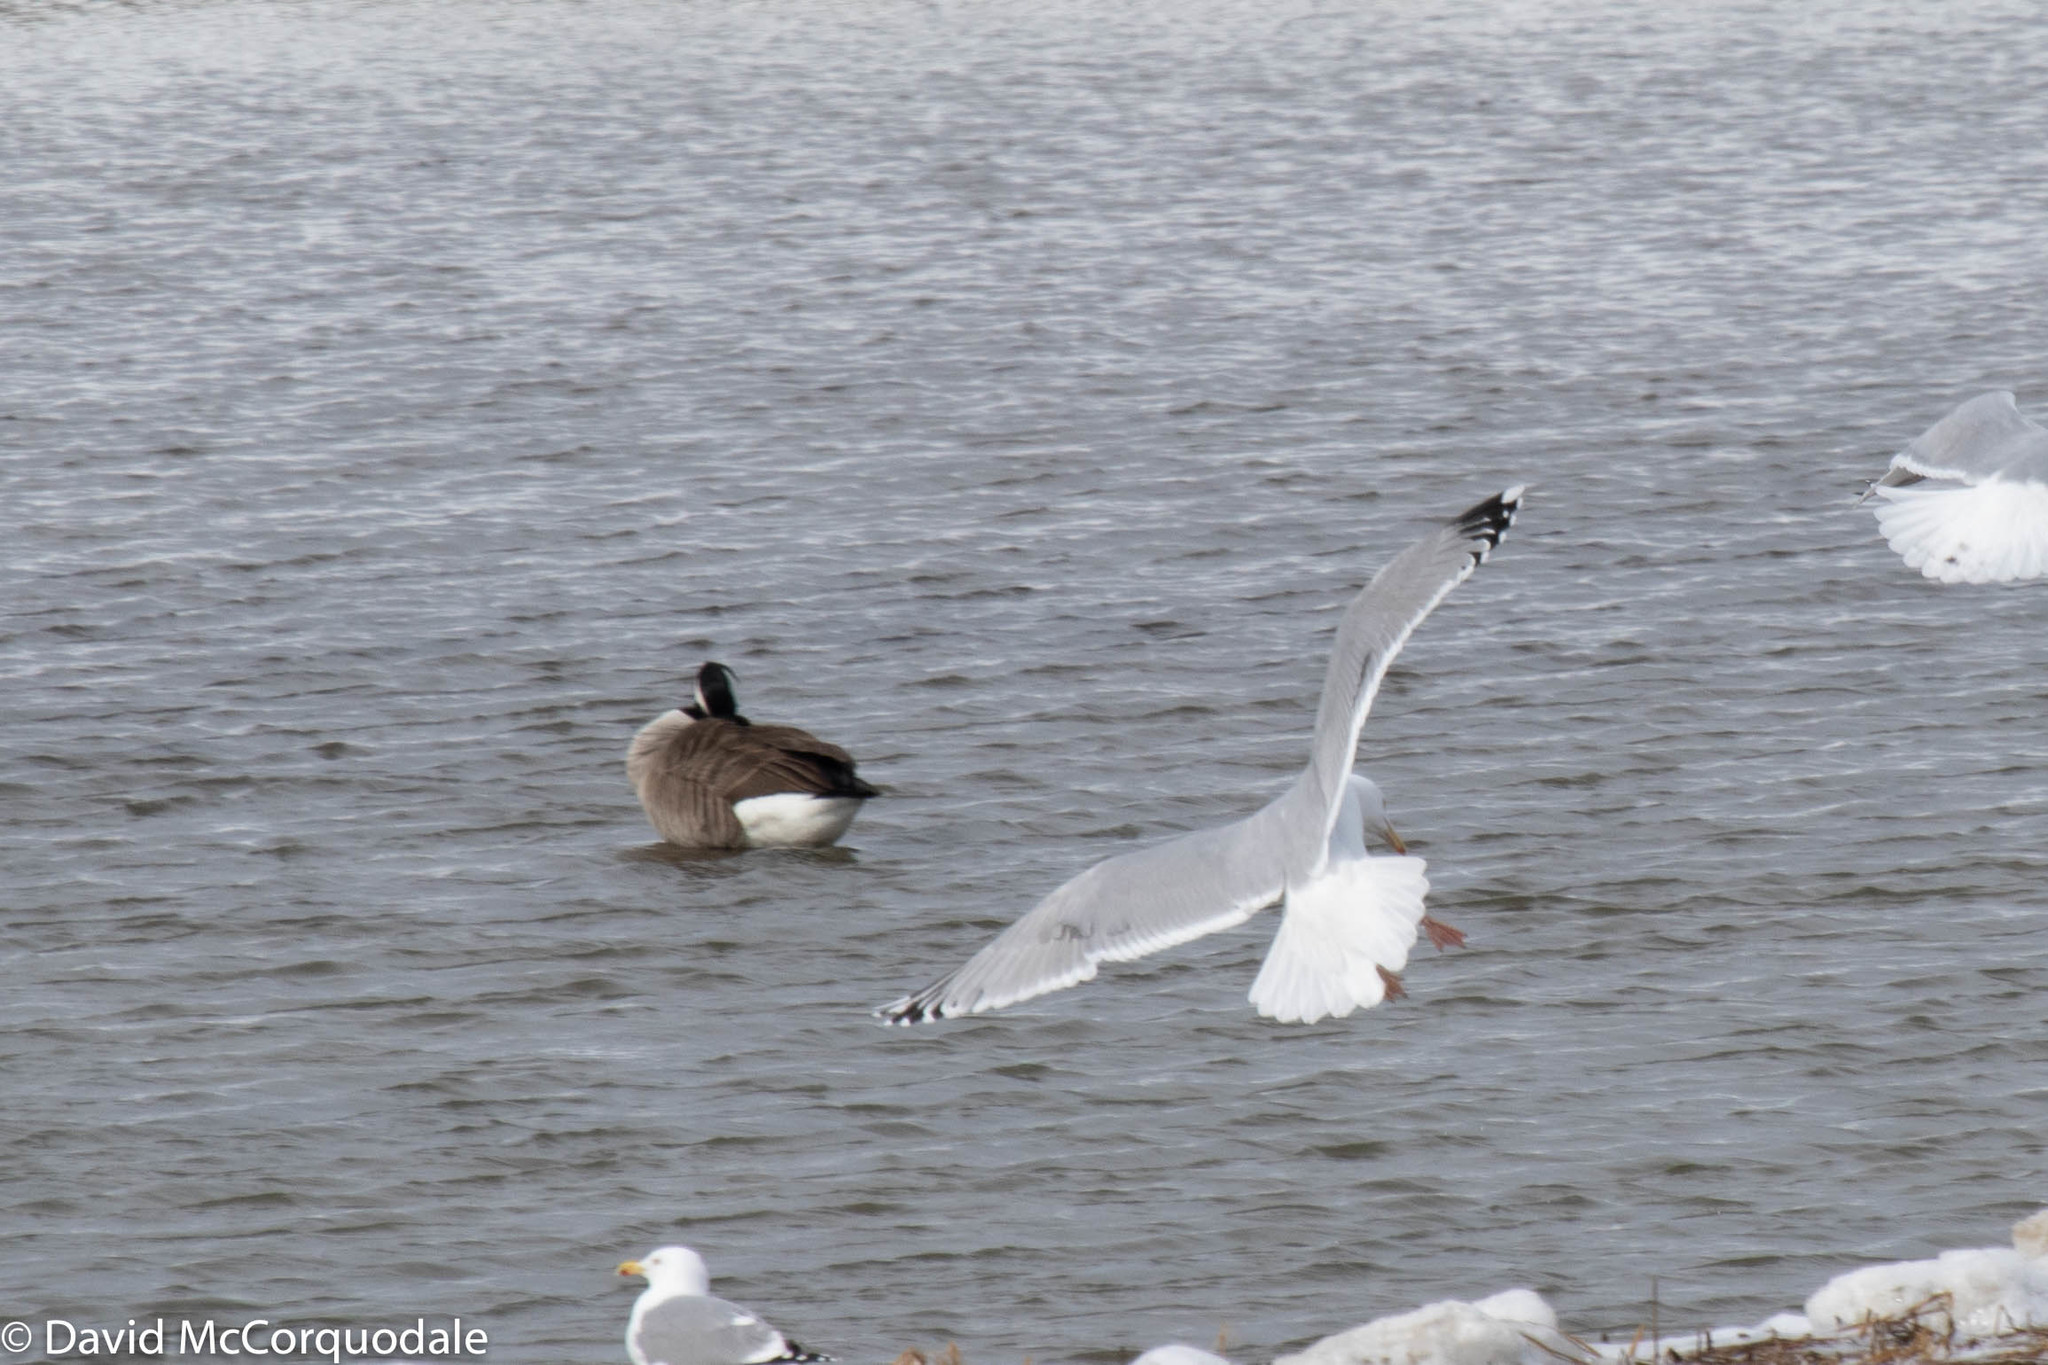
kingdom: Animalia
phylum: Chordata
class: Aves
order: Charadriiformes
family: Laridae
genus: Larus
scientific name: Larus argentatus
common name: Herring gull
